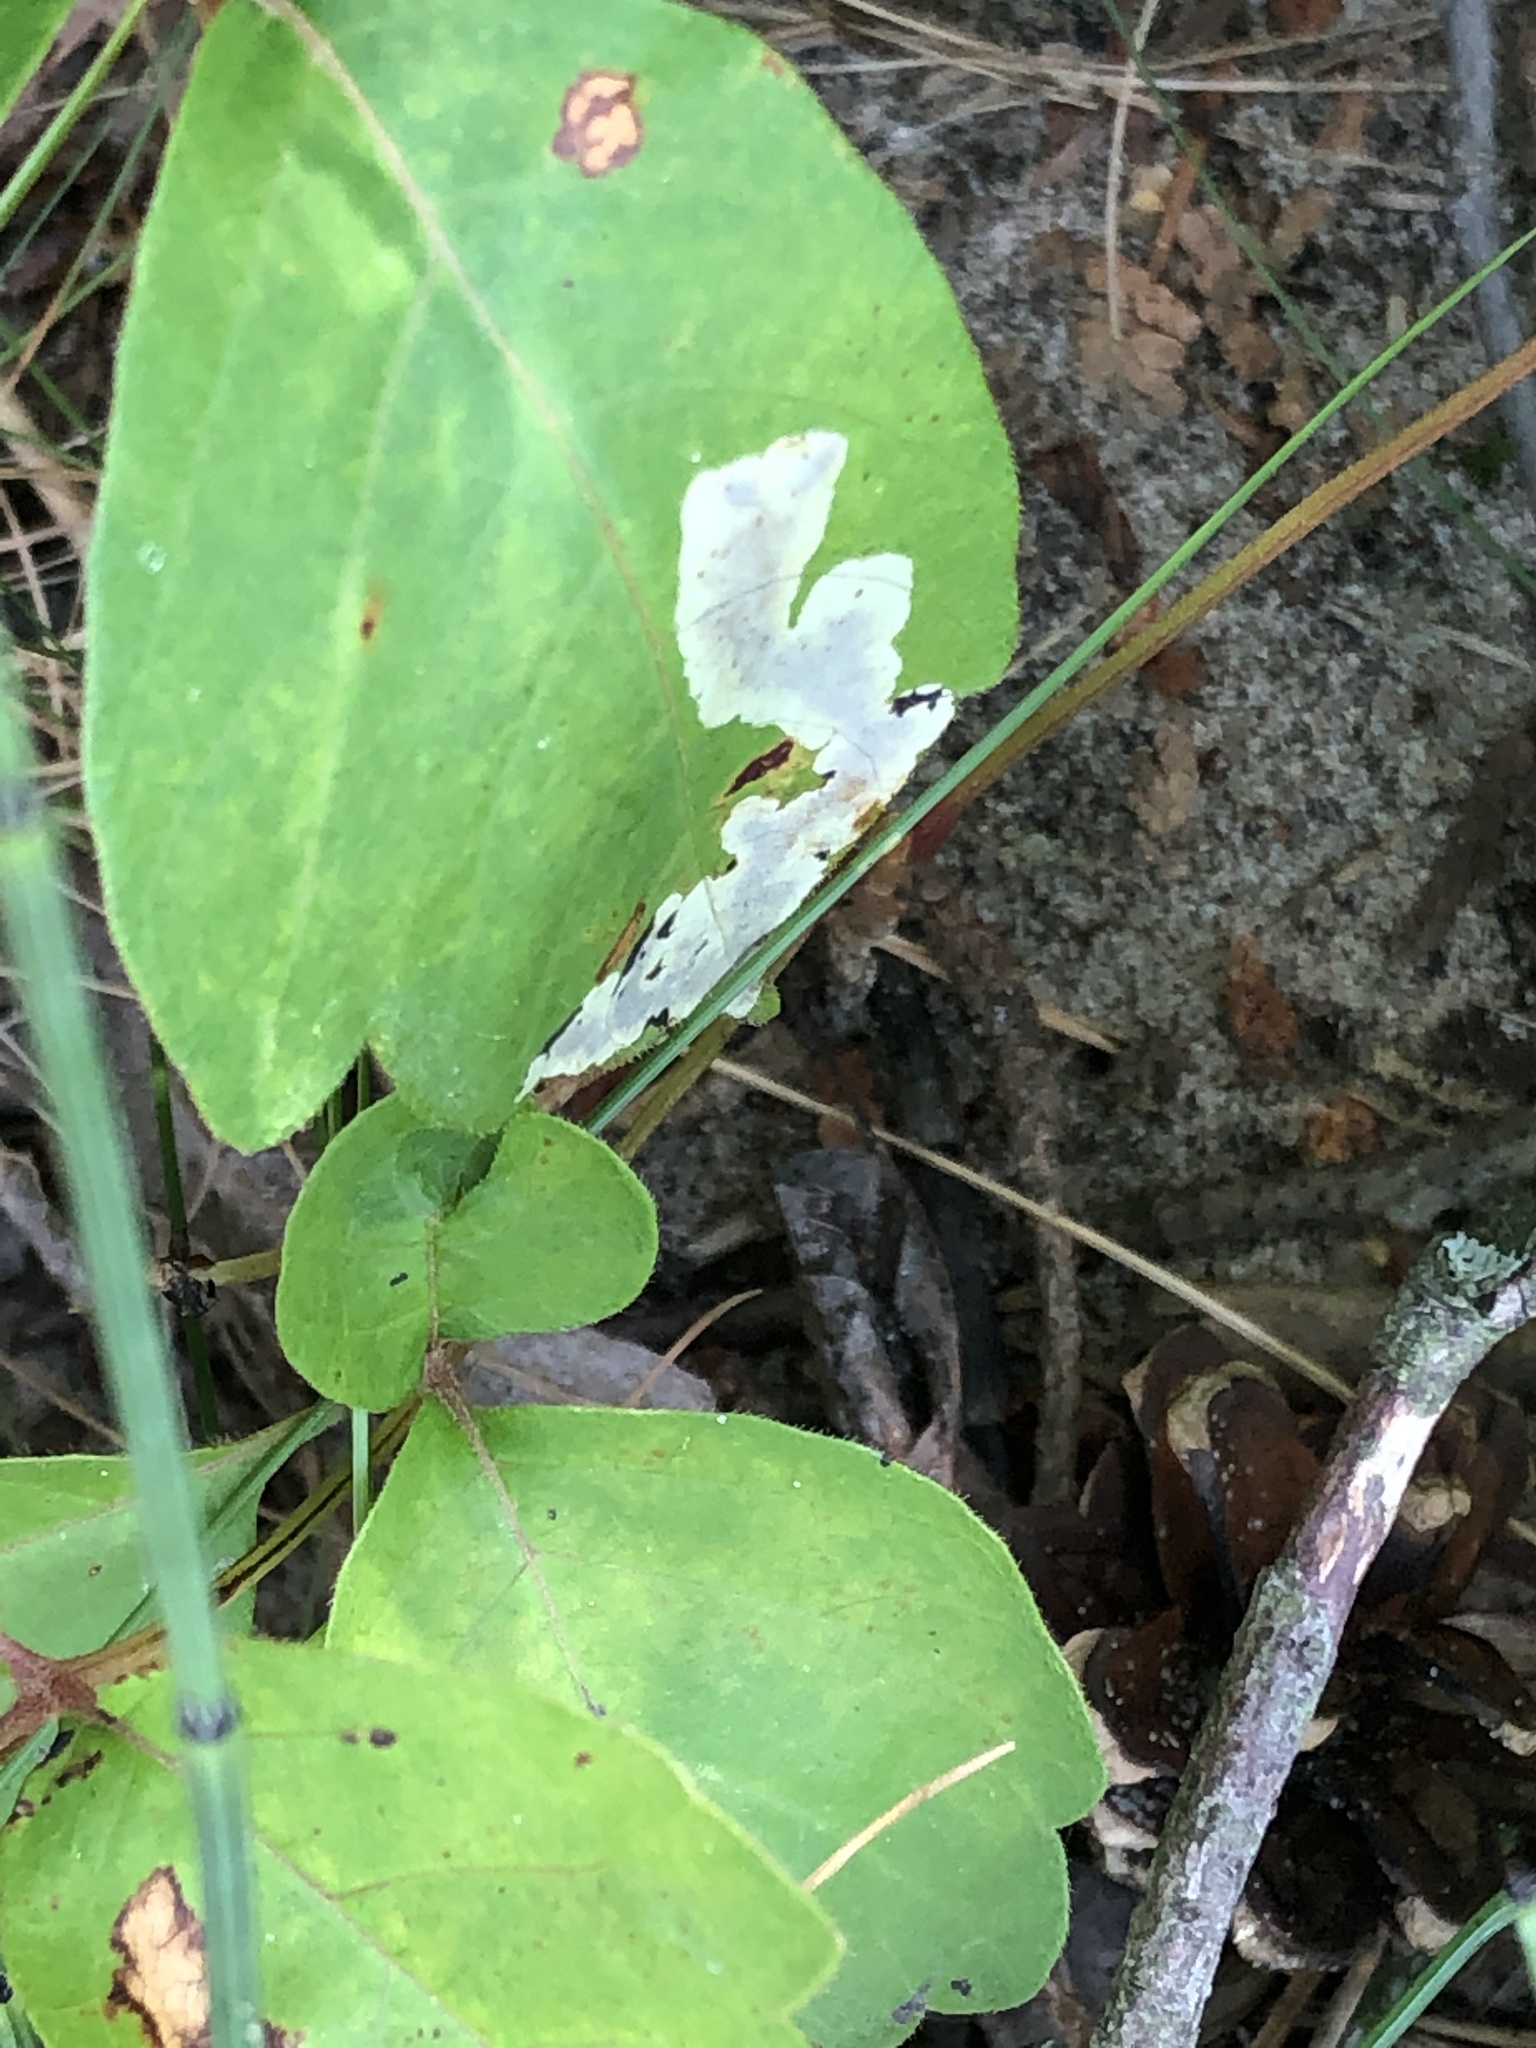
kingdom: Animalia
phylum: Arthropoda
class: Insecta
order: Lepidoptera
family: Gracillariidae
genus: Cameraria
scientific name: Cameraria guttifinitella
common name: Poison ivy leaf-miner moth
